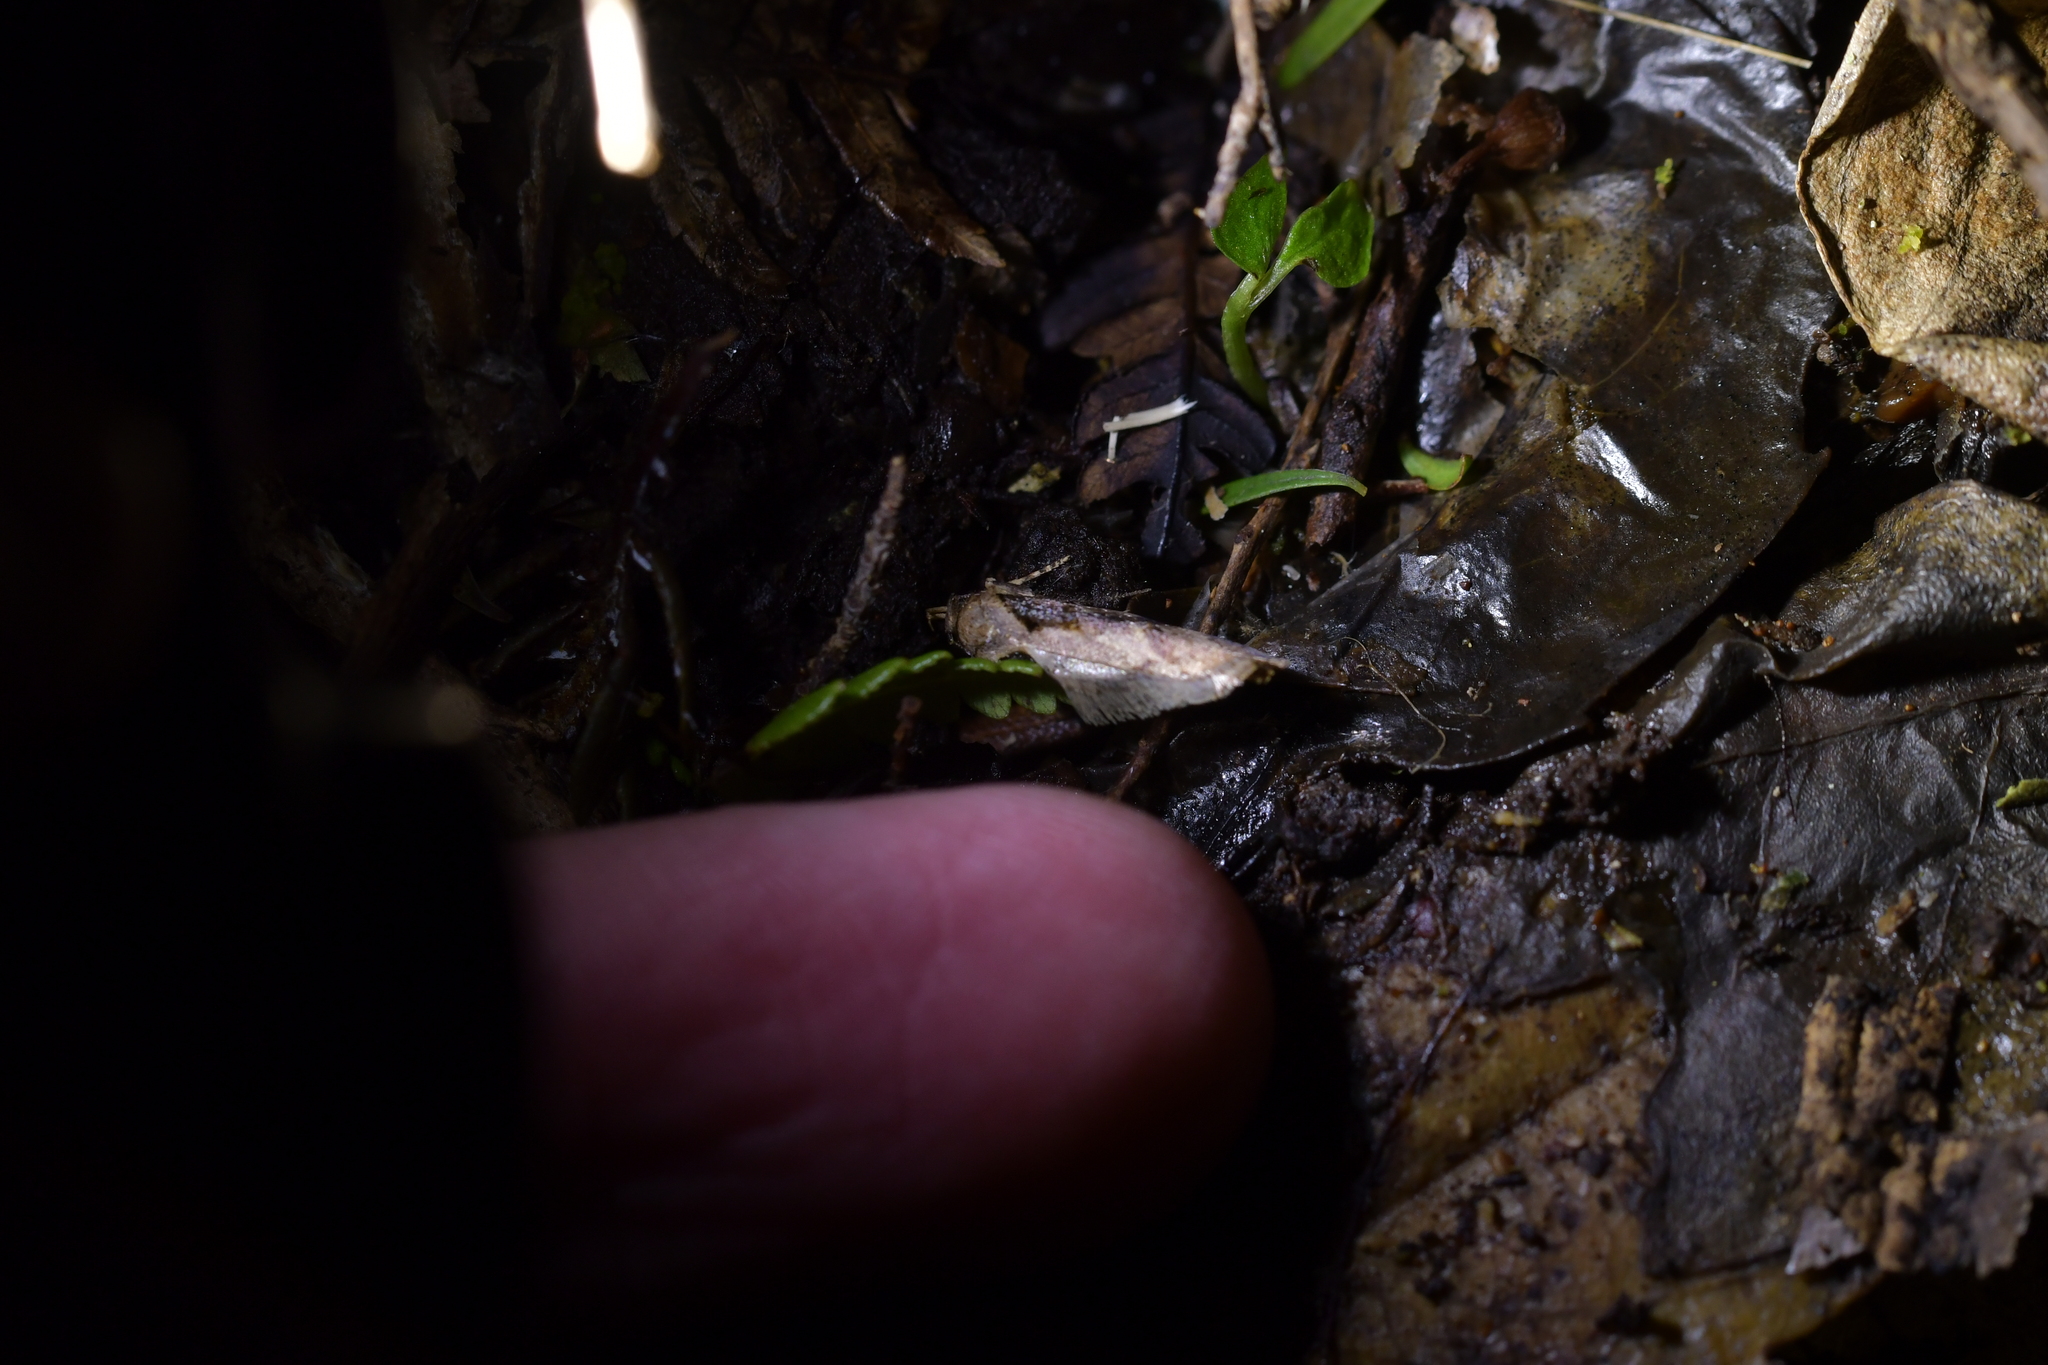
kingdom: Animalia
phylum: Arthropoda
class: Insecta
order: Lepidoptera
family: Oecophoridae
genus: Atomotricha
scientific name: Atomotricha isogama
